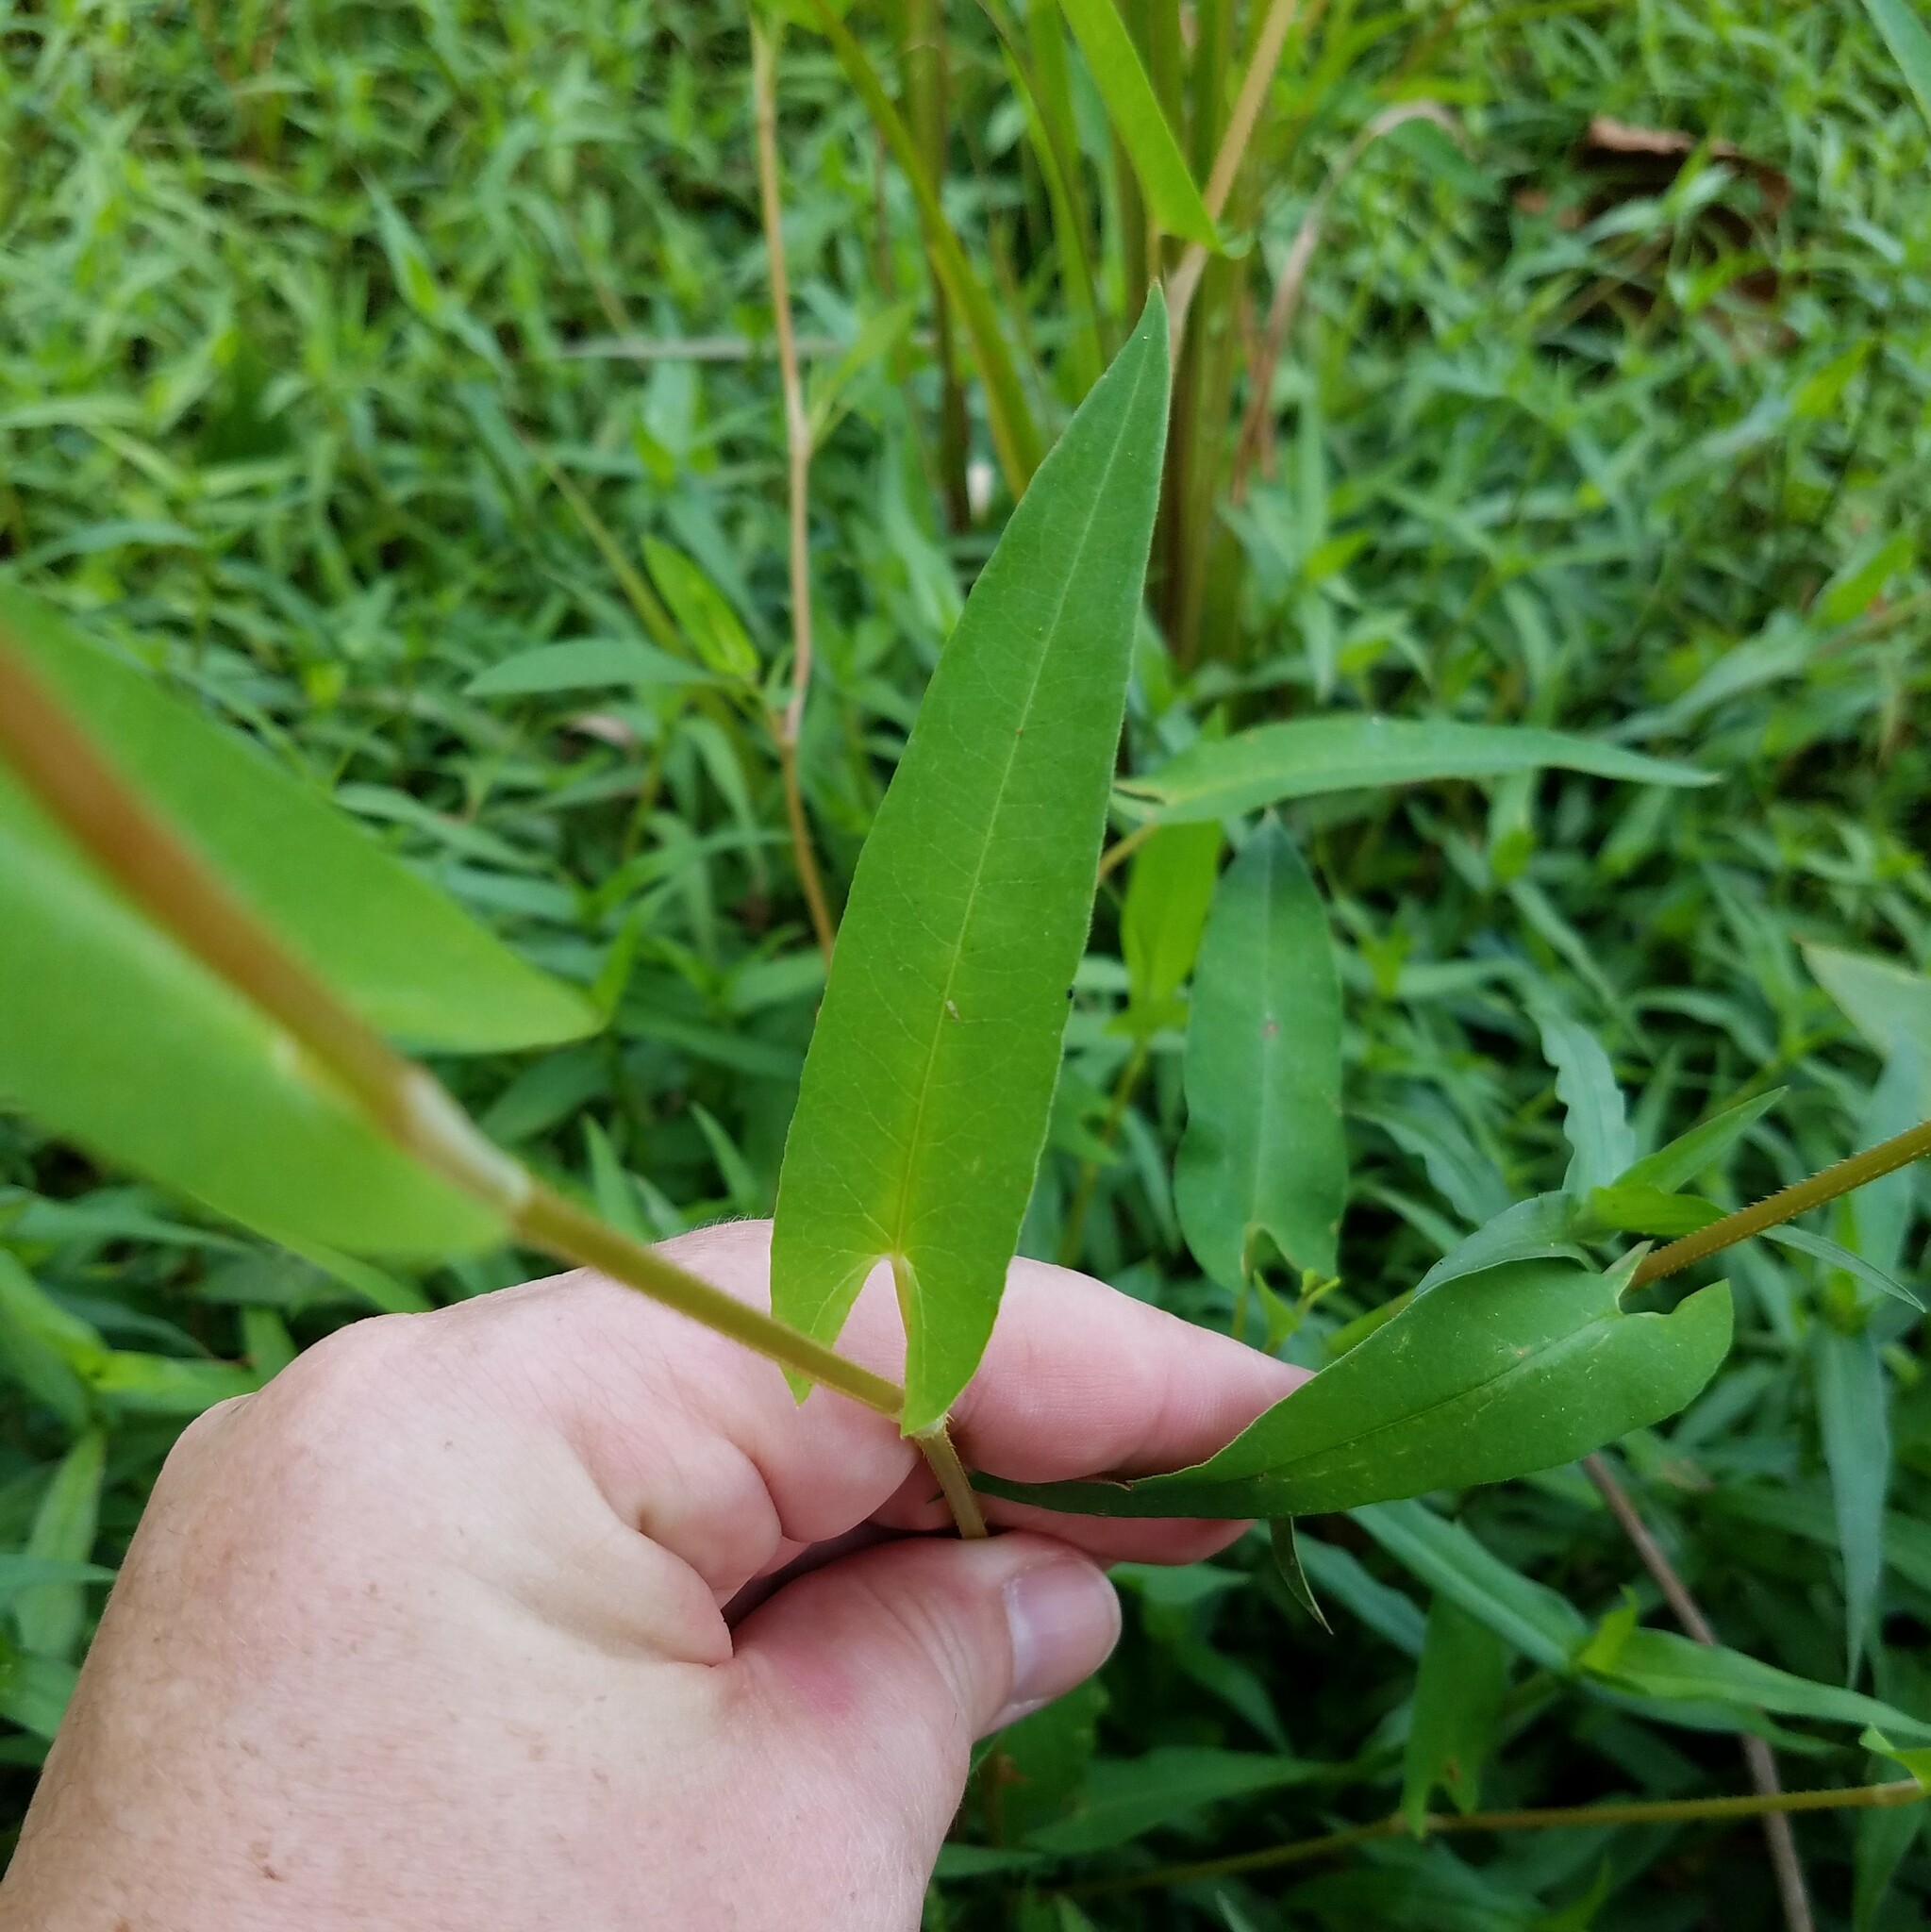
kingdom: Plantae
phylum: Tracheophyta
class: Magnoliopsida
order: Caryophyllales
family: Polygonaceae
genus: Persicaria
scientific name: Persicaria sagittata
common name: American tearthumb
